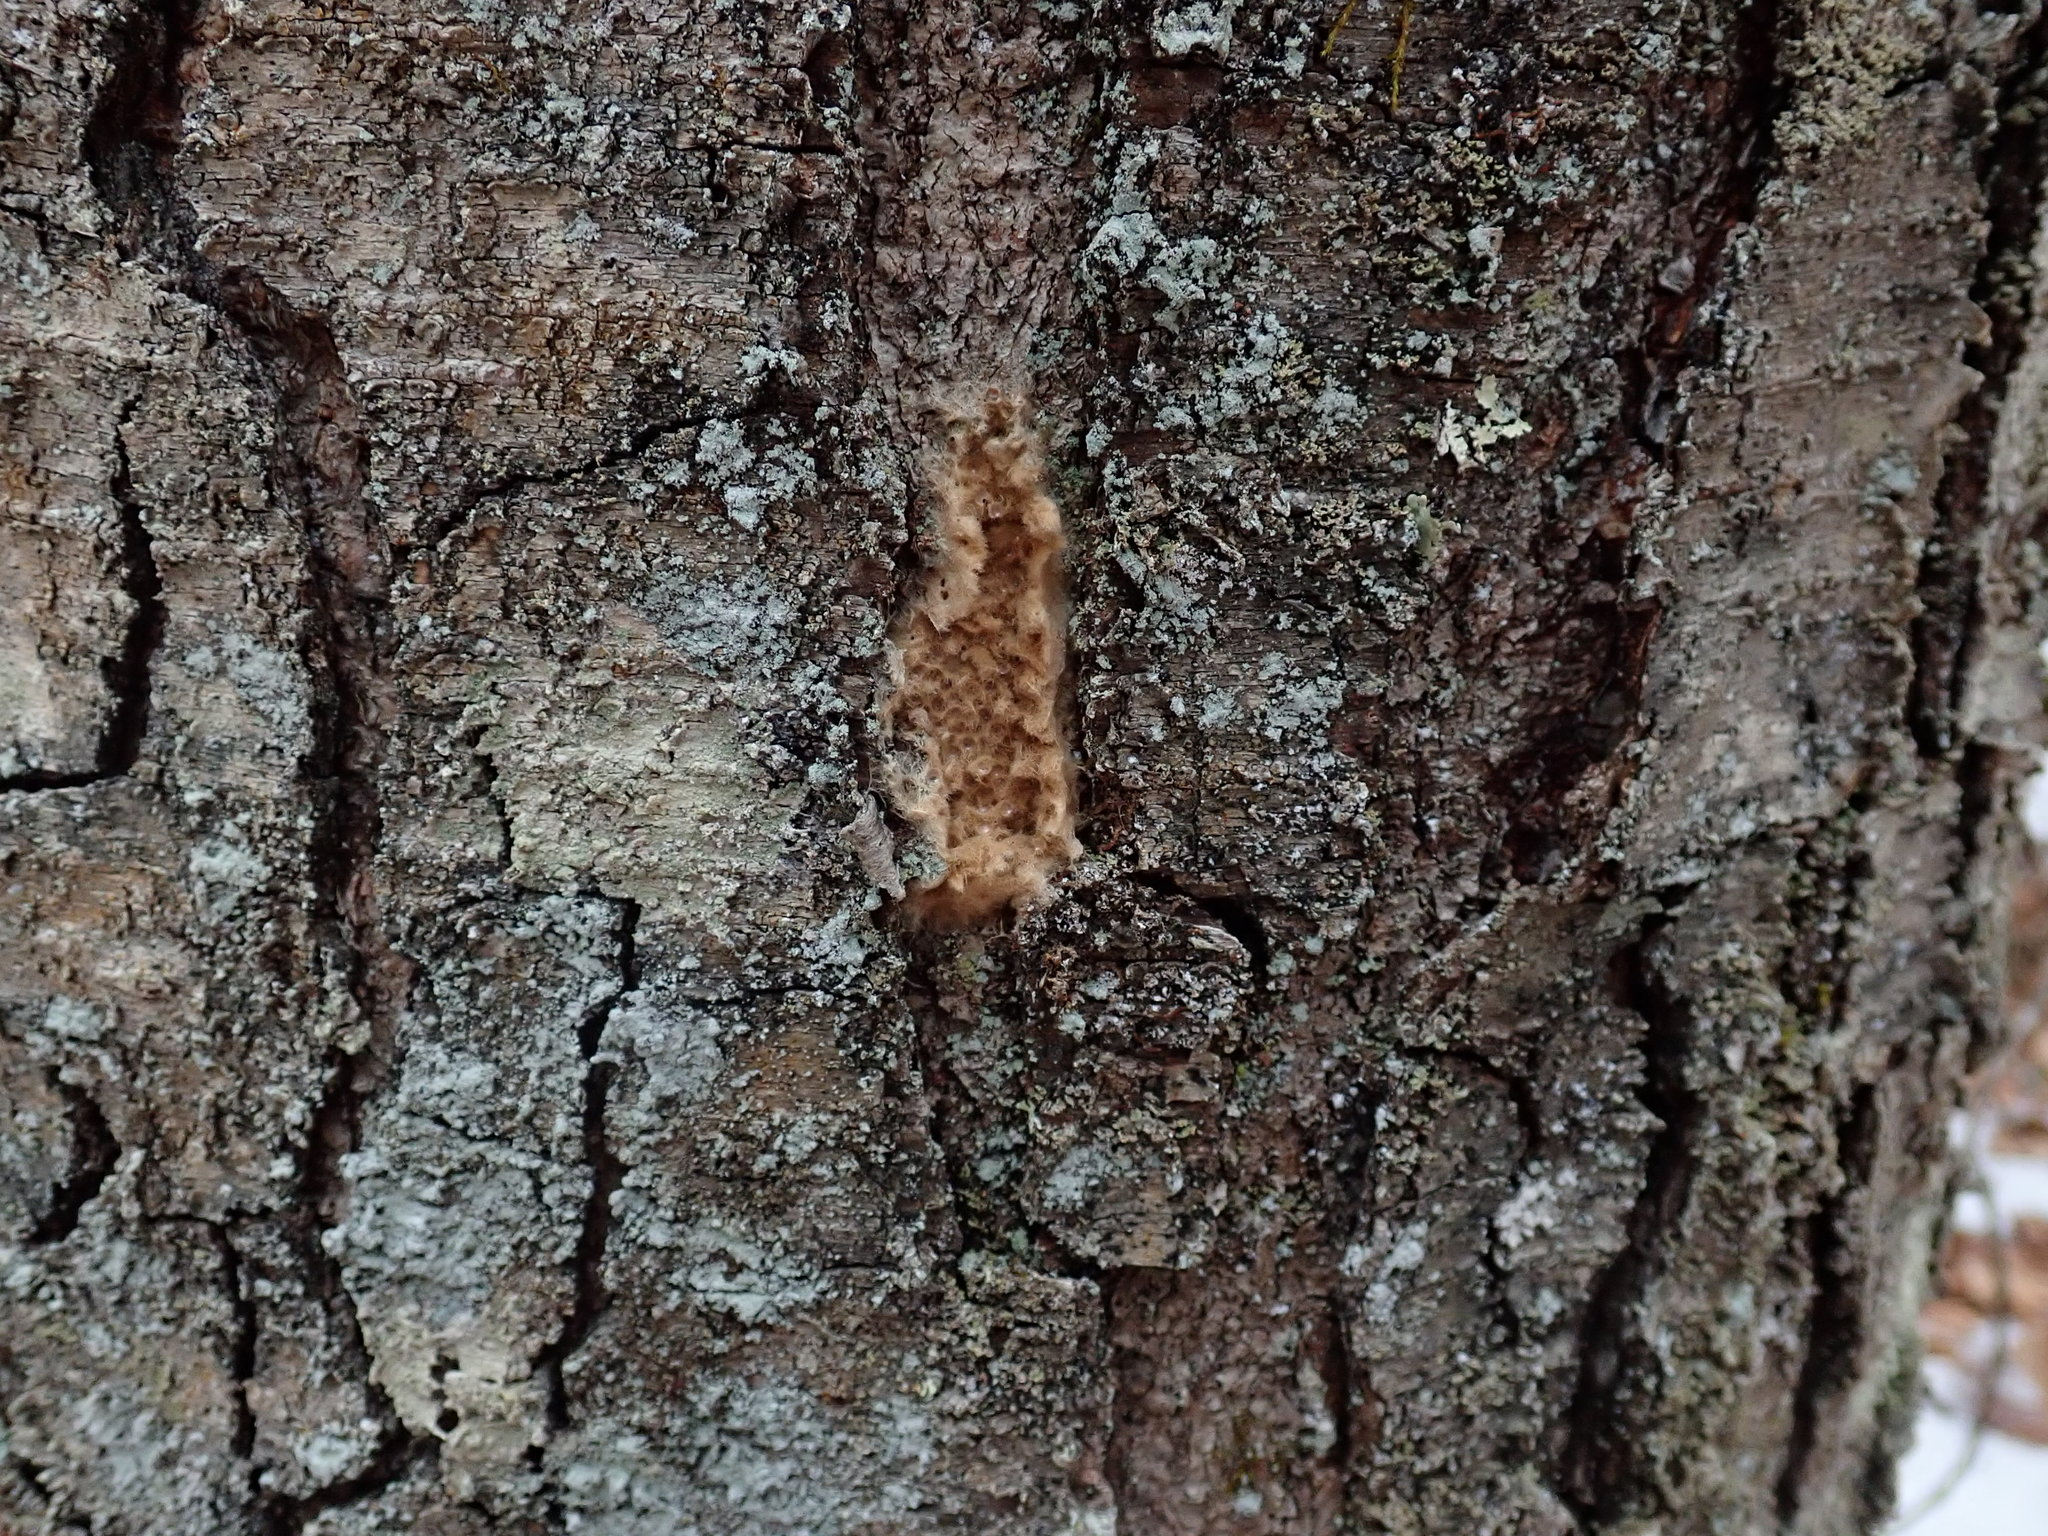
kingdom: Animalia
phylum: Arthropoda
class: Insecta
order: Lepidoptera
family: Erebidae
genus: Lymantria
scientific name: Lymantria dispar
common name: Gypsy moth
